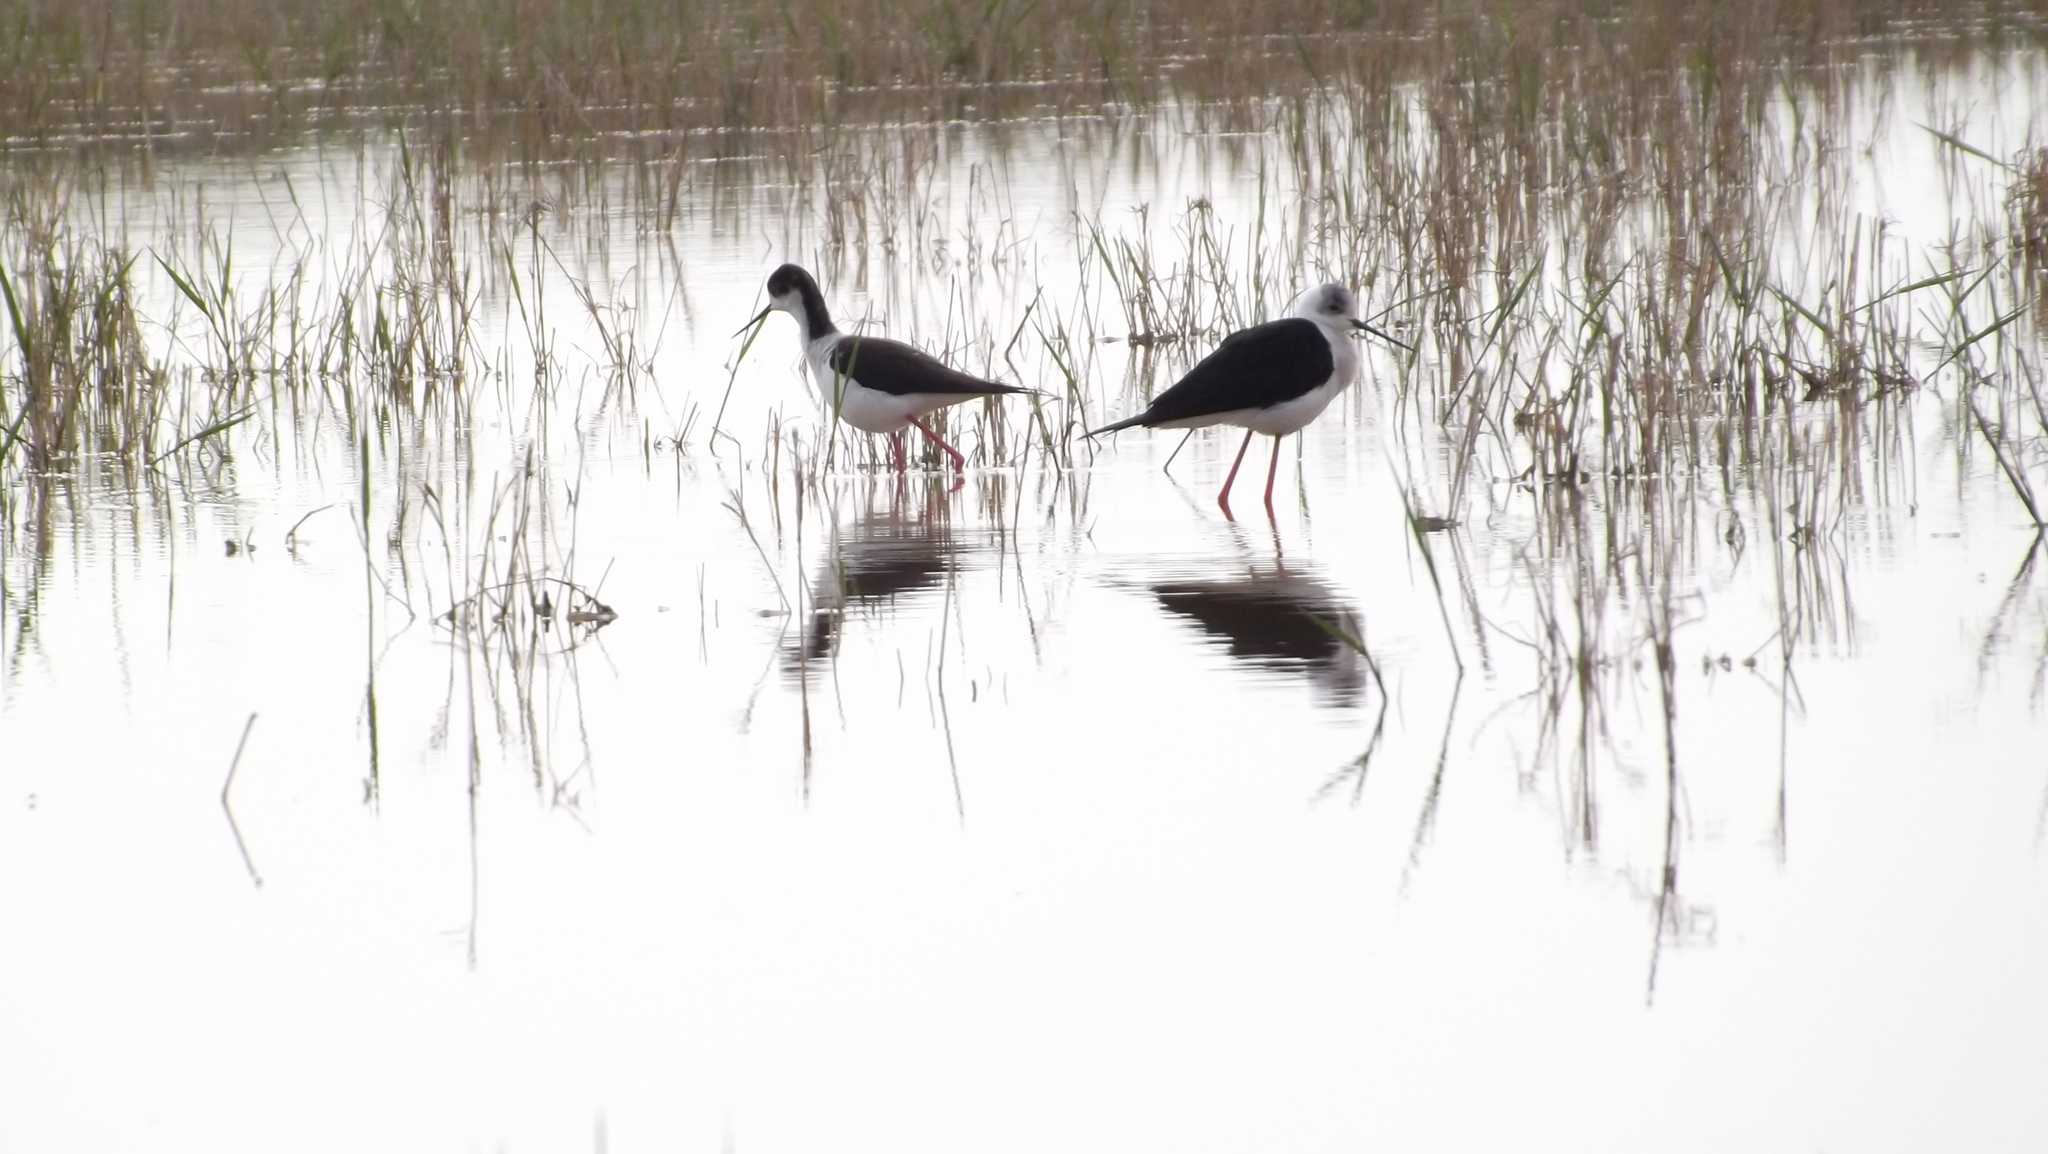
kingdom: Animalia
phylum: Chordata
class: Aves
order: Charadriiformes
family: Recurvirostridae
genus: Himantopus
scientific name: Himantopus himantopus
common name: Black-winged stilt
